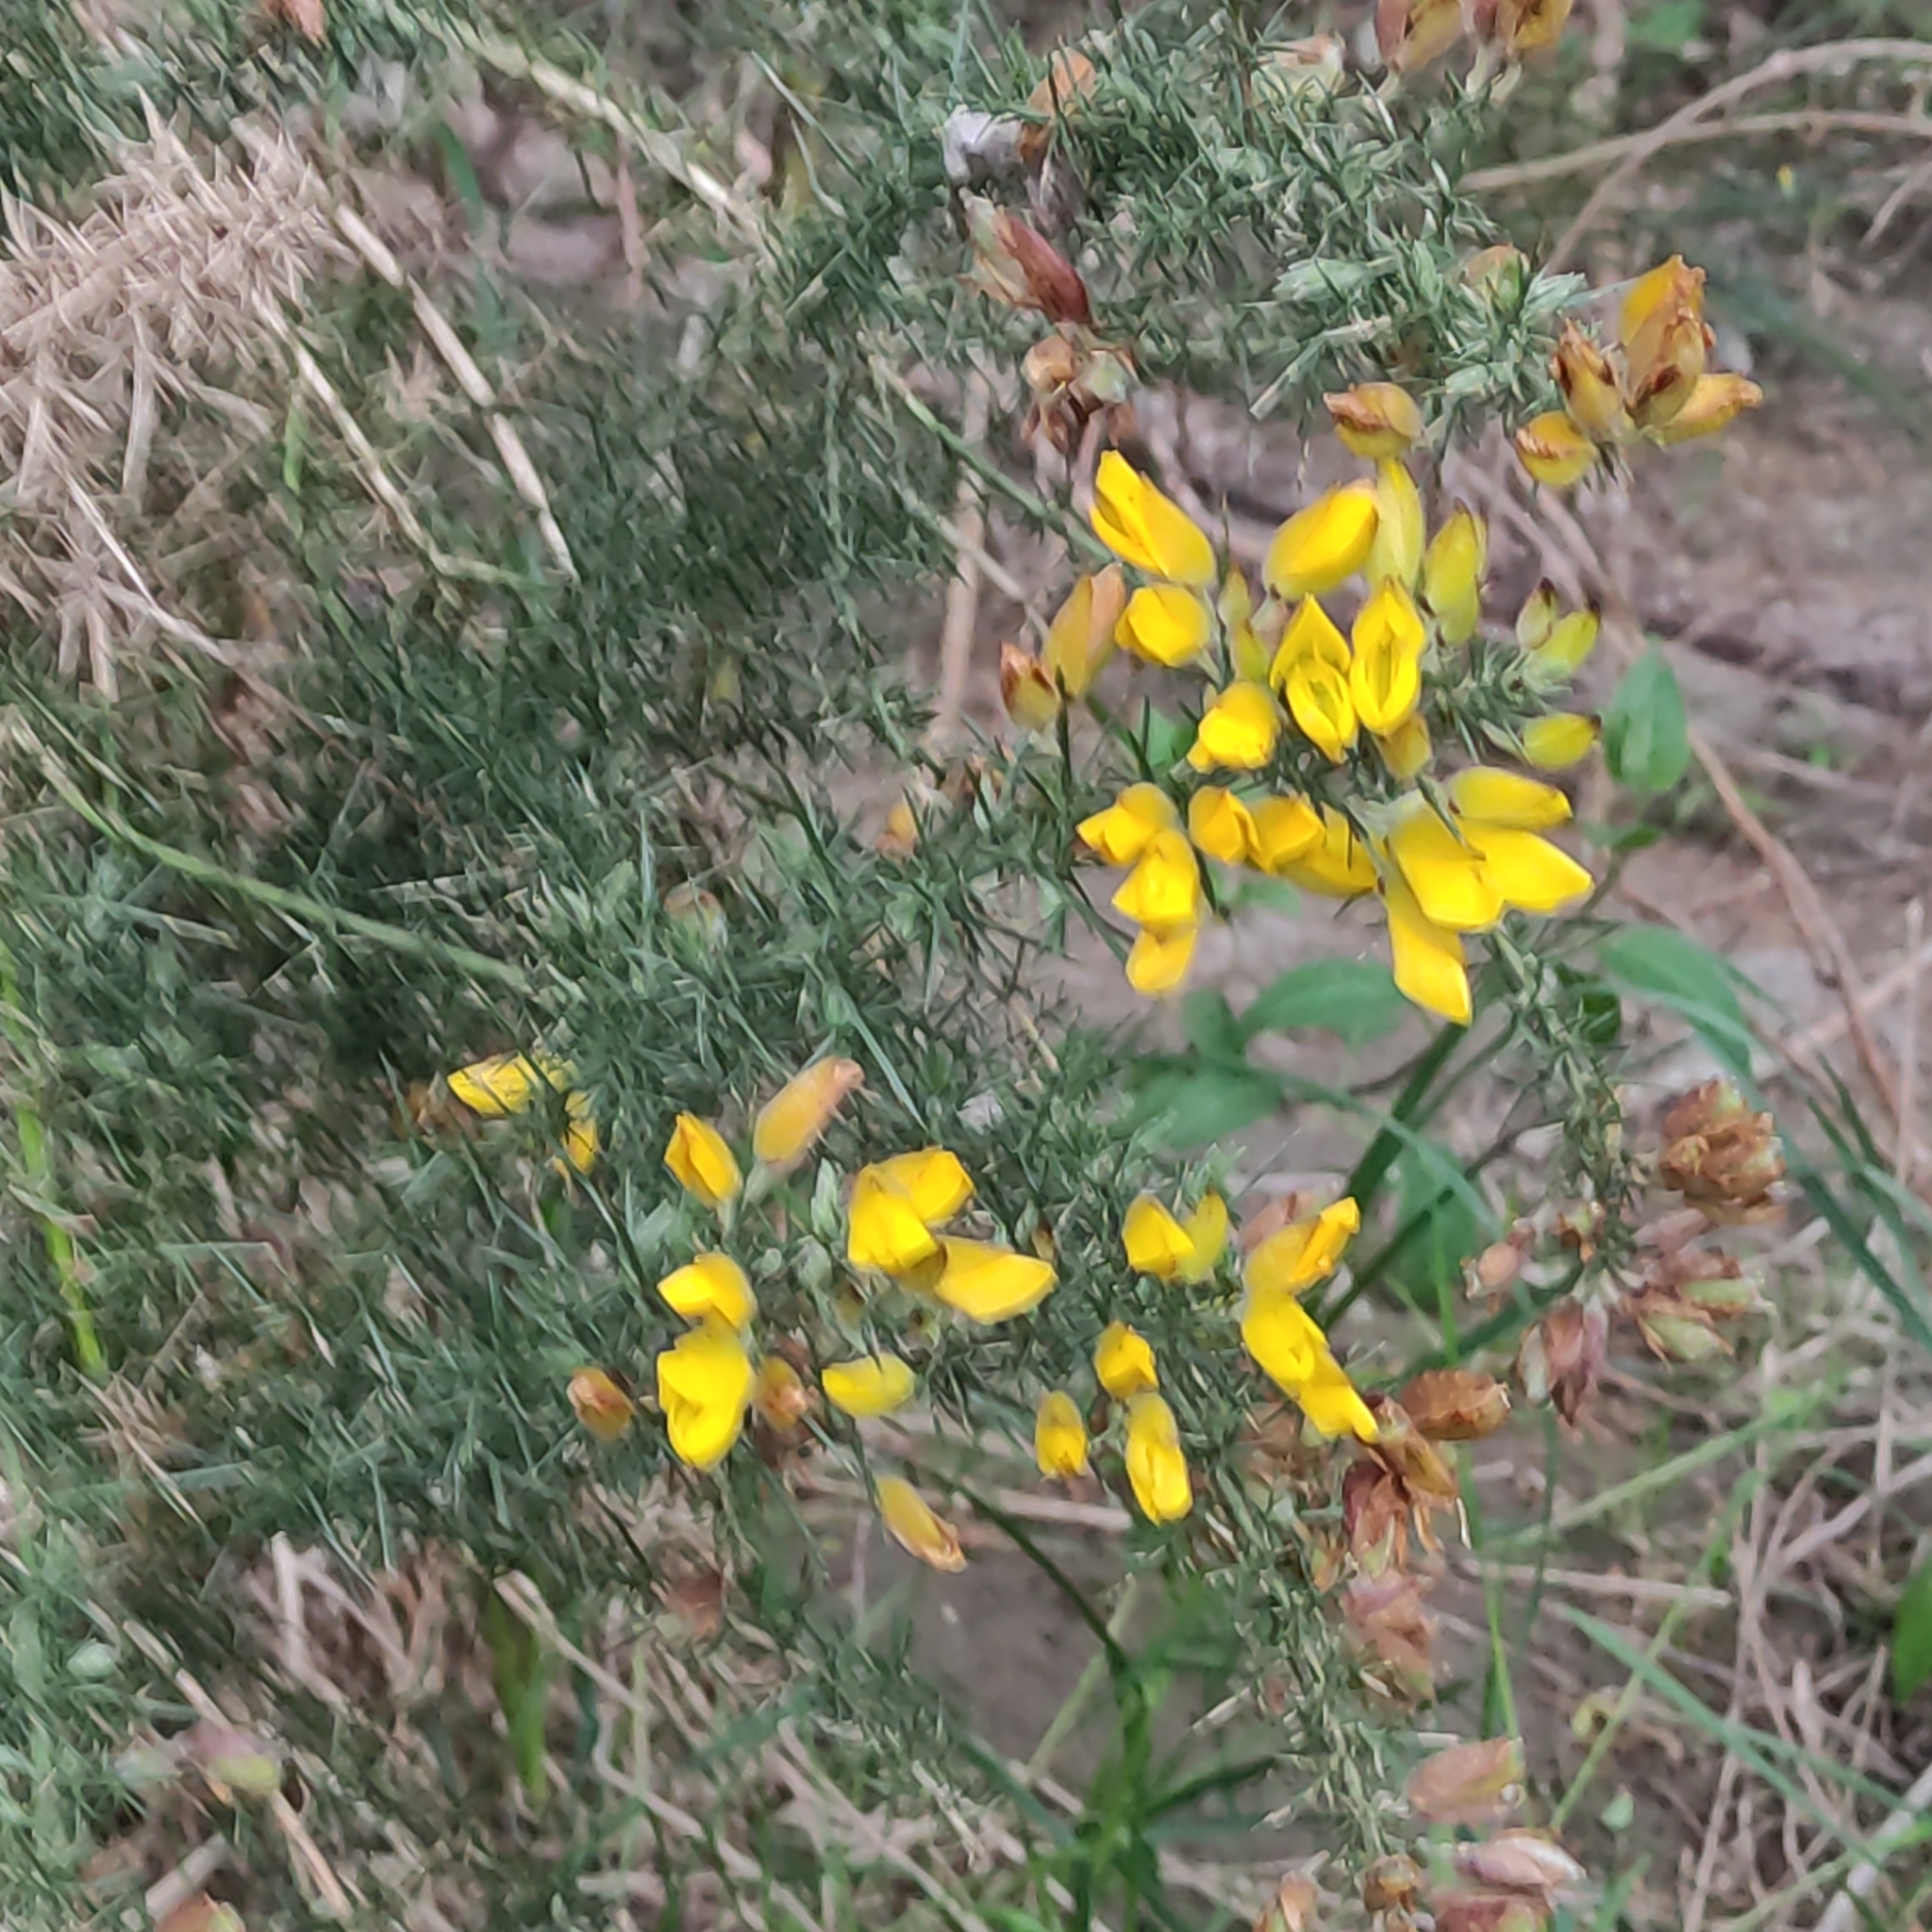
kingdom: Plantae
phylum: Tracheophyta
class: Magnoliopsida
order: Fabales
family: Fabaceae
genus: Ulex
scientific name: Ulex europaeus
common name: Common gorse
